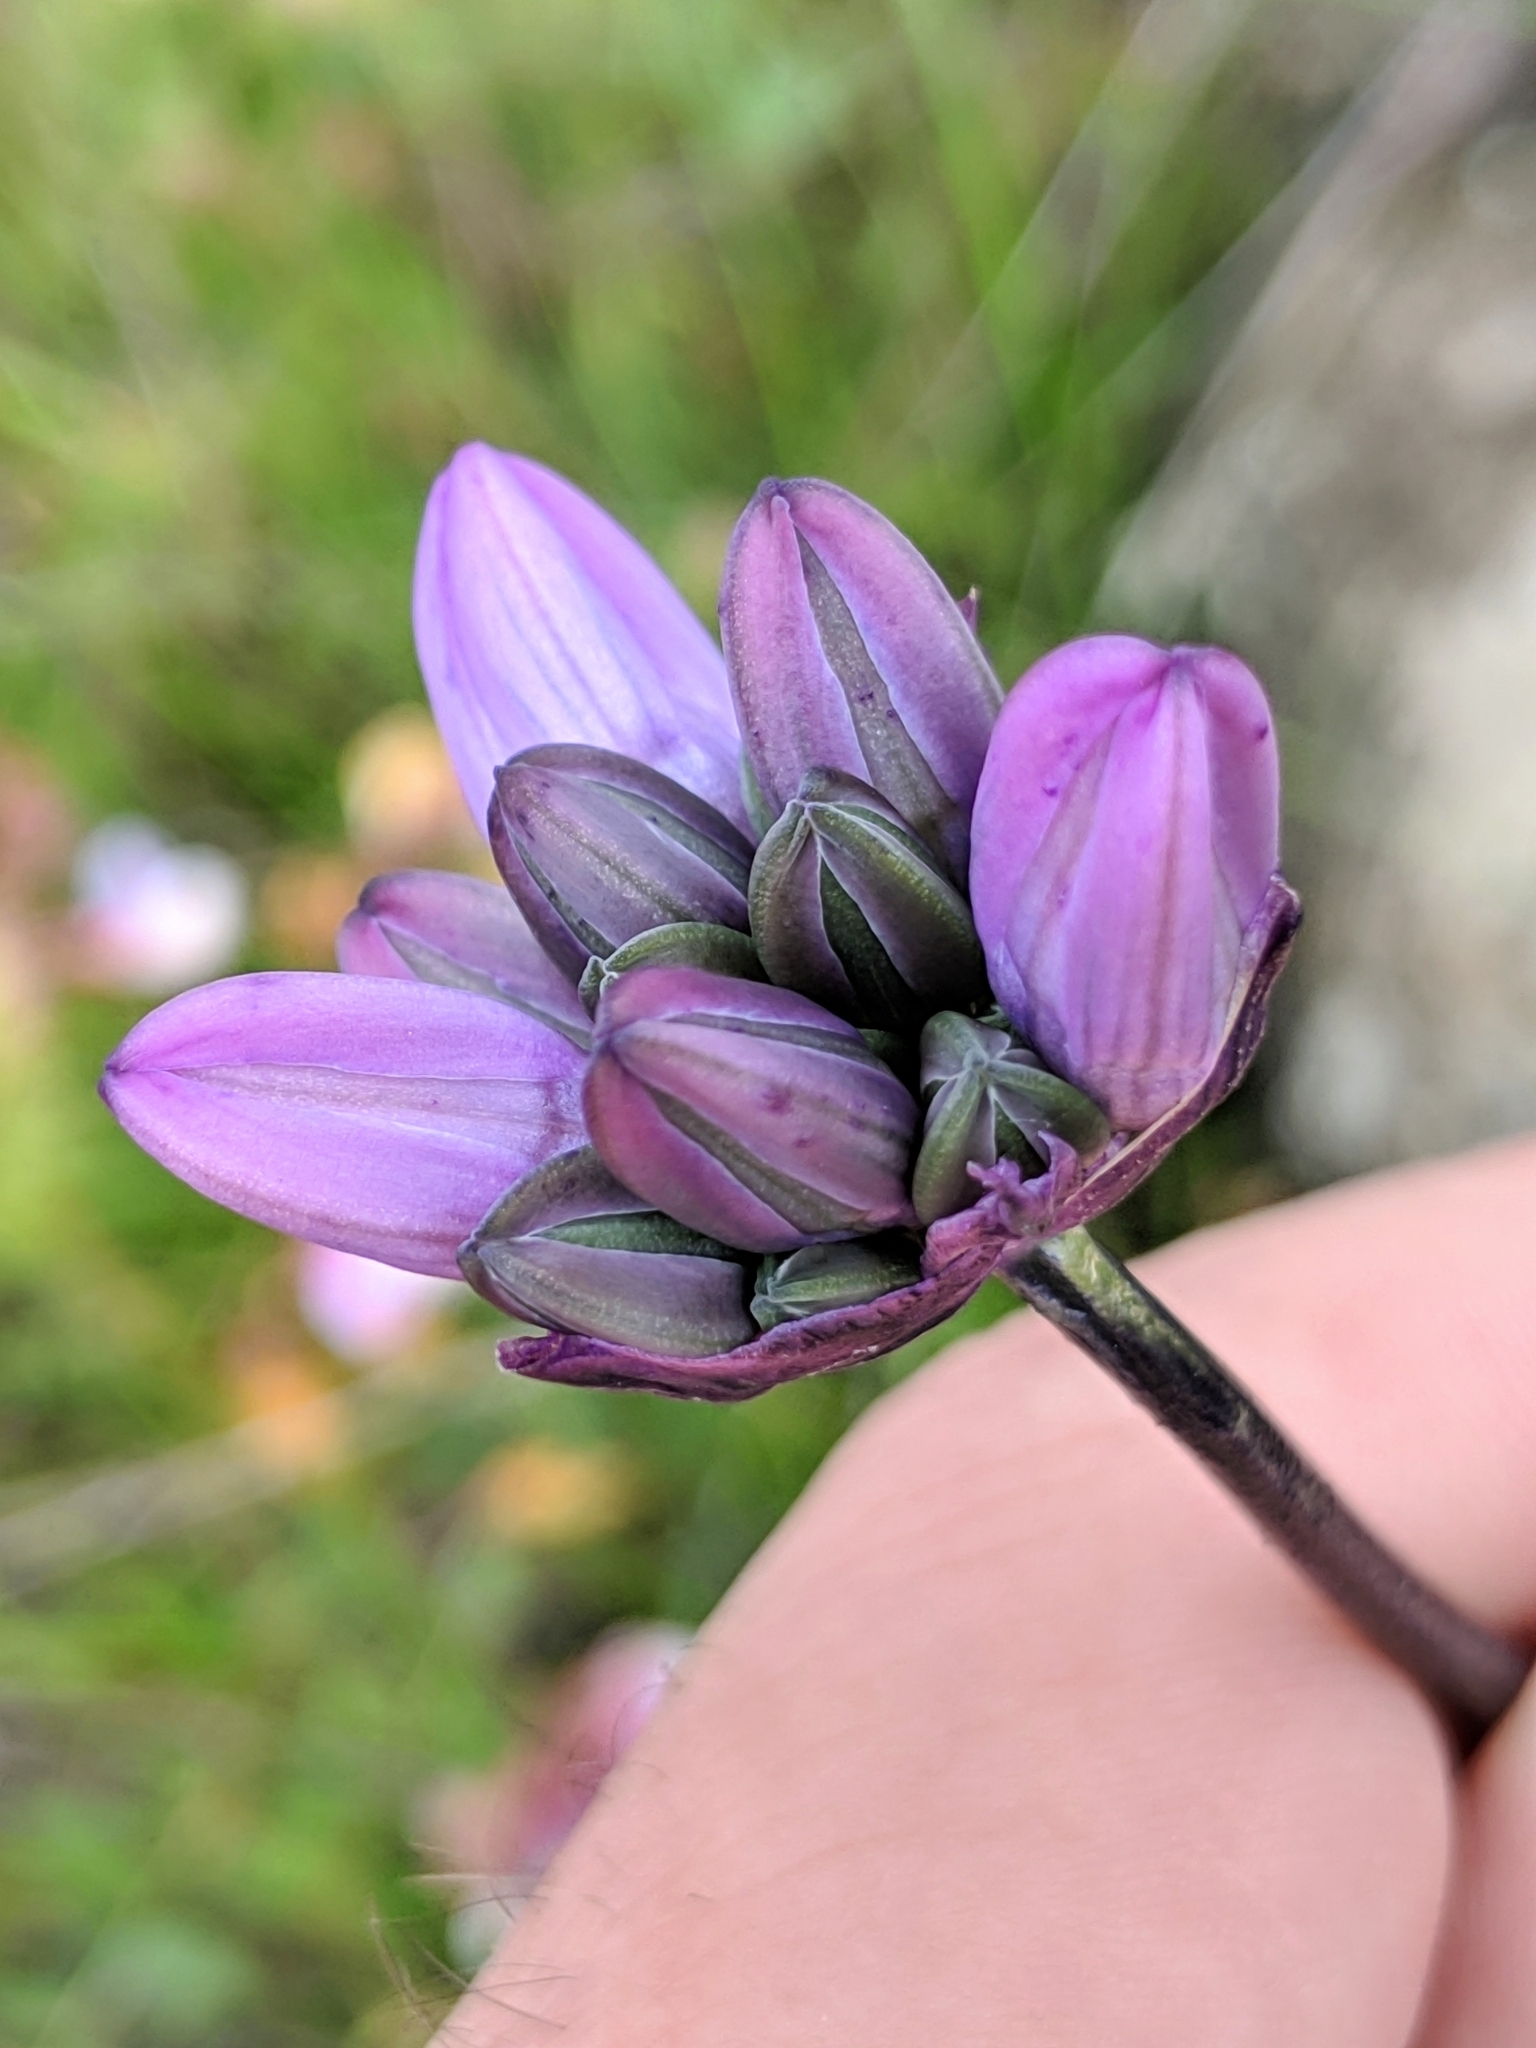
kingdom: Plantae
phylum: Tracheophyta
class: Liliopsida
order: Asparagales
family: Asparagaceae
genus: Dipterostemon
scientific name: Dipterostemon capitatus
